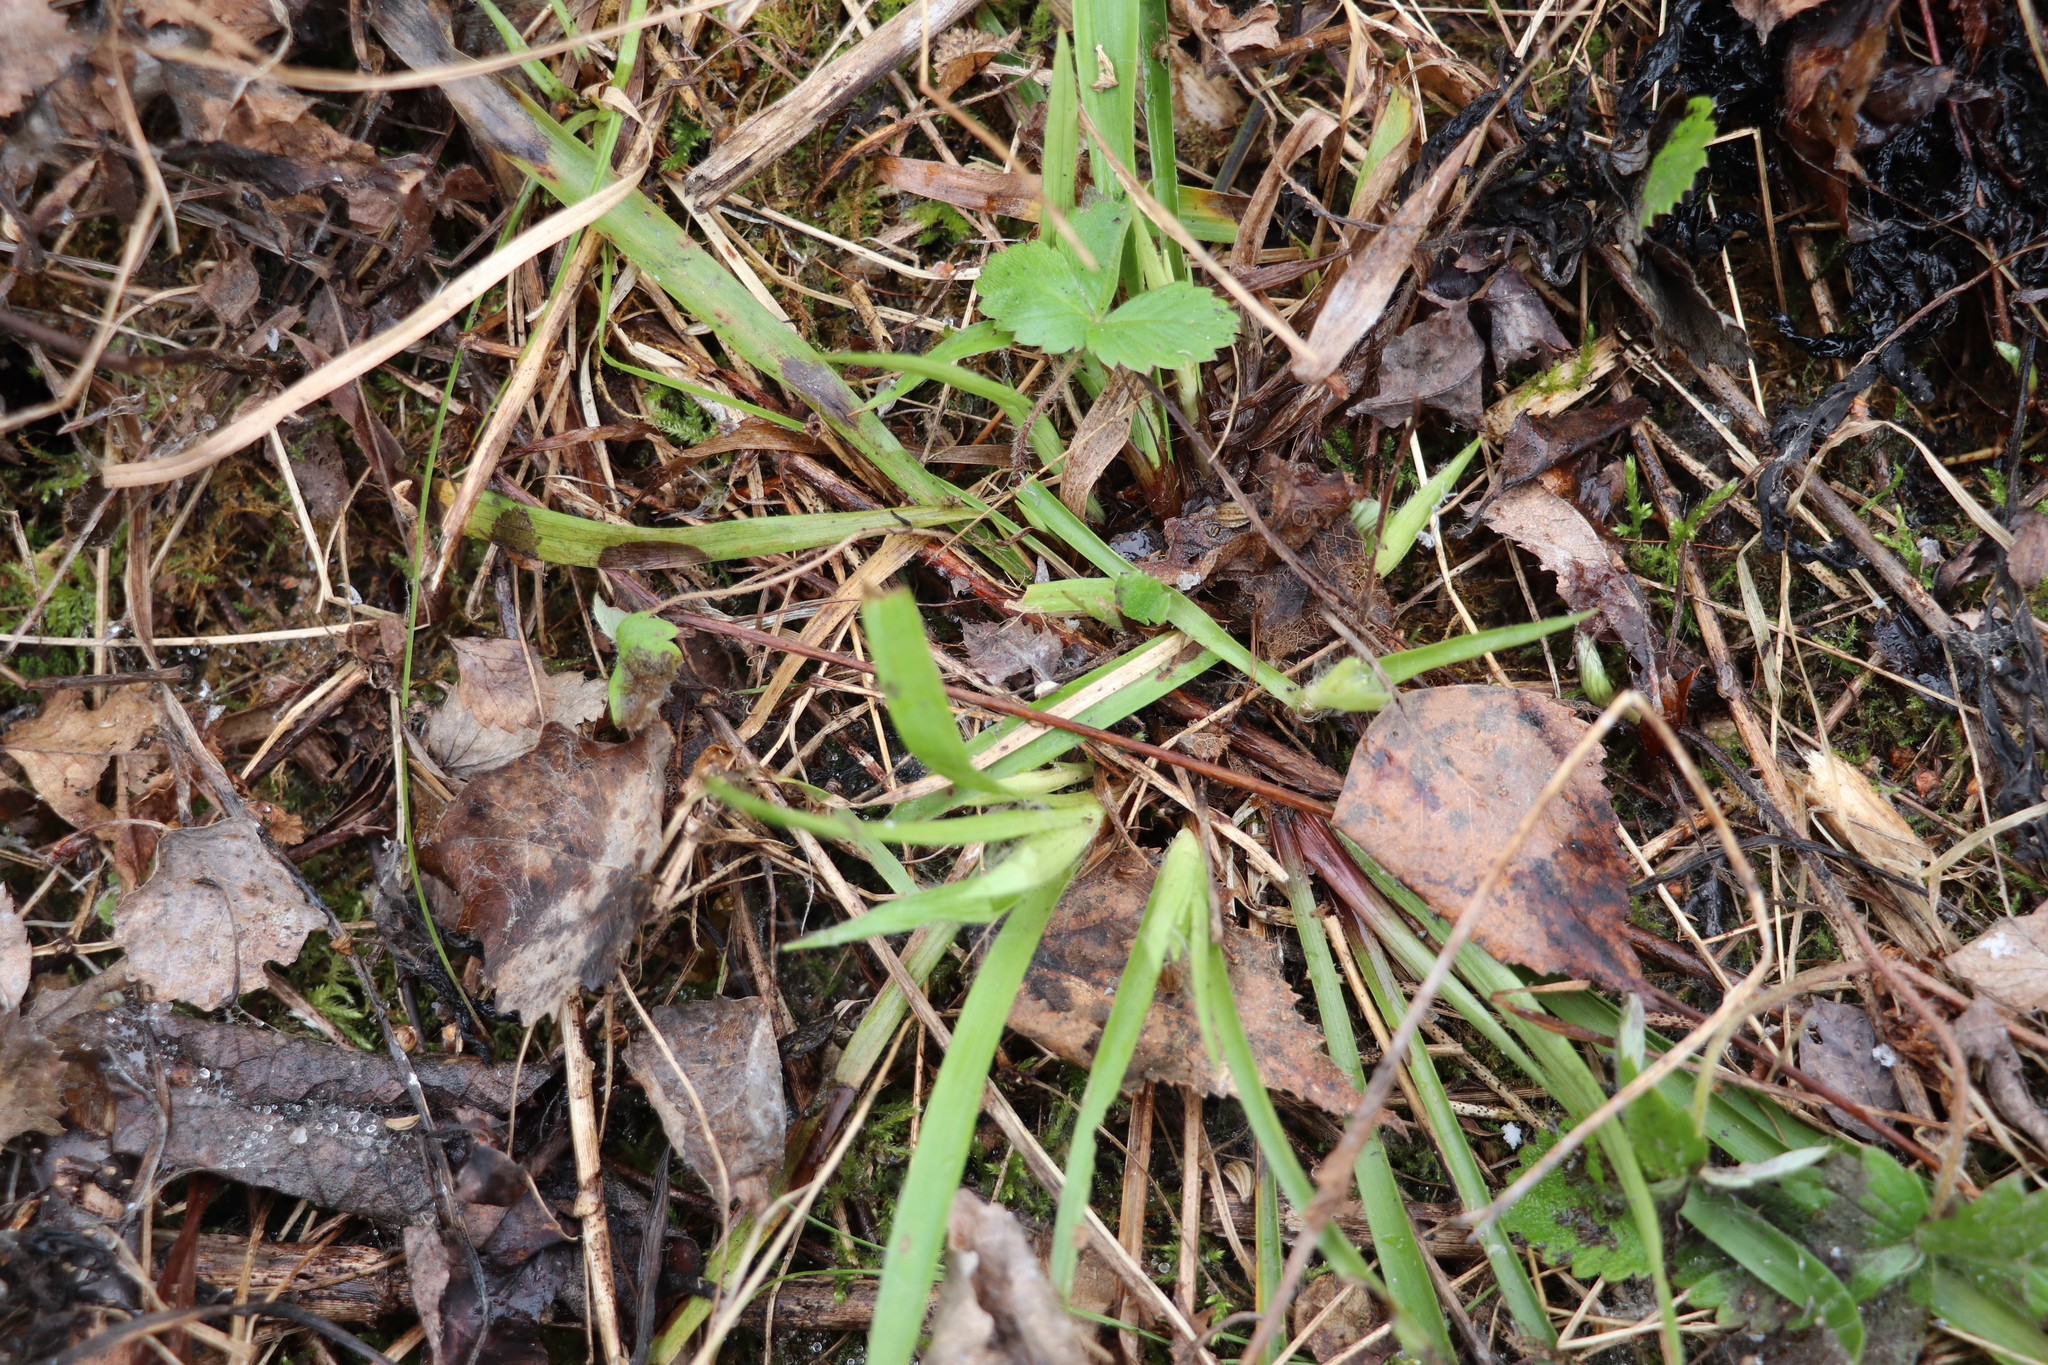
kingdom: Plantae
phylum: Tracheophyta
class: Liliopsida
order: Poales
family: Juncaceae
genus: Luzula
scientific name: Luzula pilosa
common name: Hairy wood-rush
